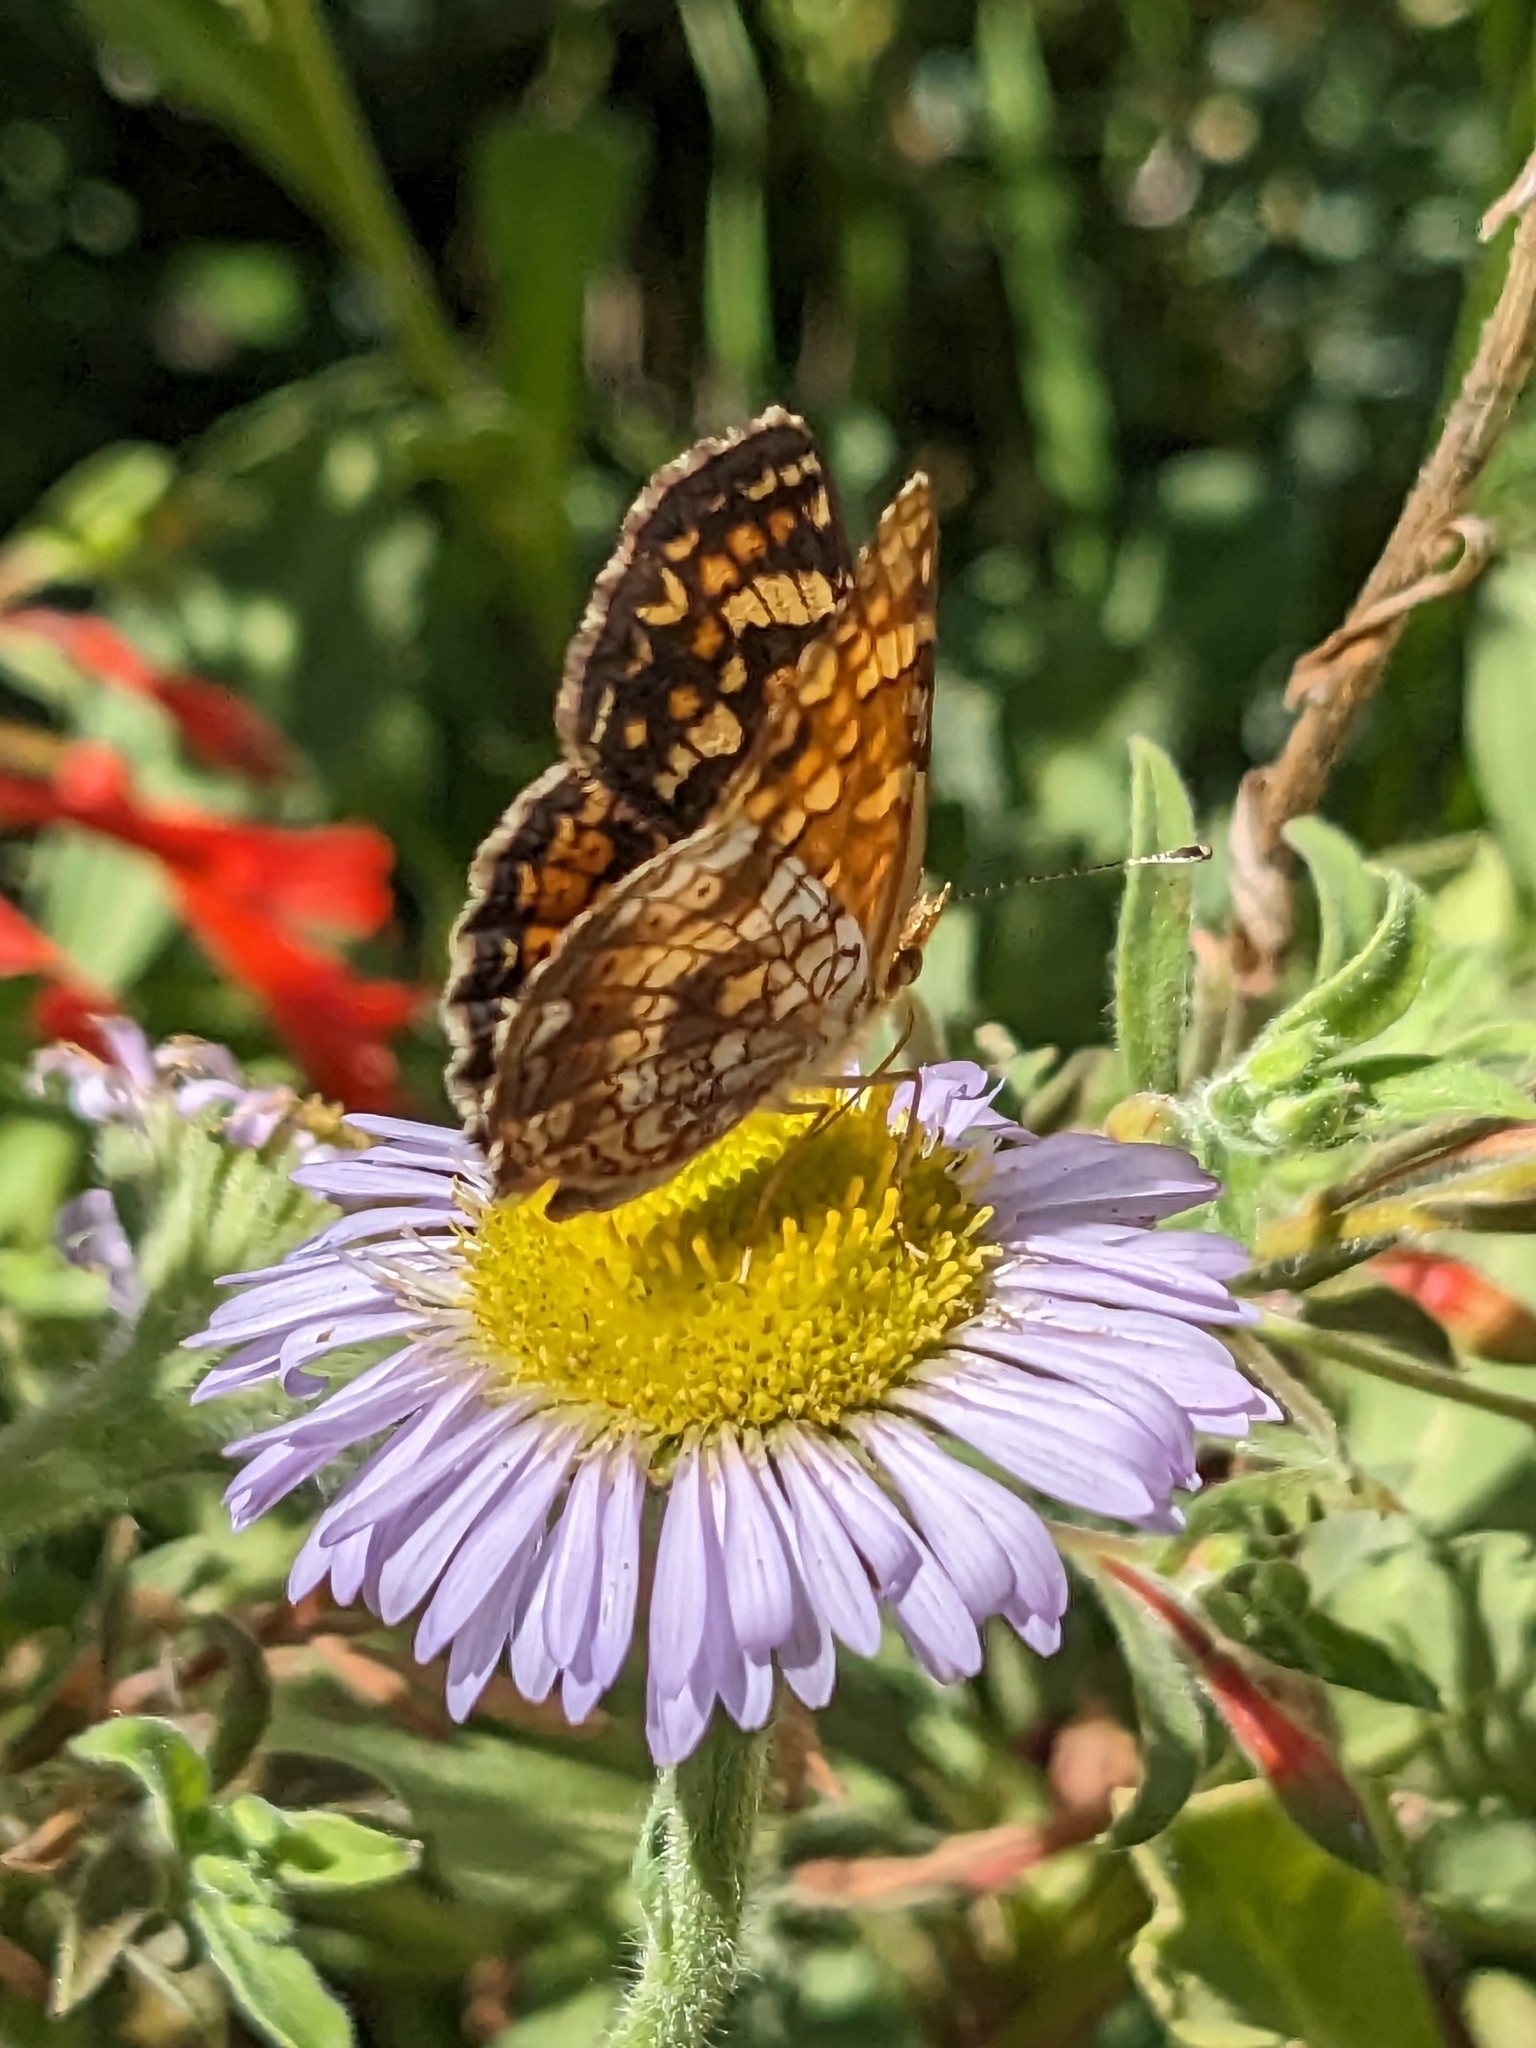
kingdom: Animalia
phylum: Arthropoda
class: Insecta
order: Lepidoptera
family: Nymphalidae
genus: Phyciodes
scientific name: Phyciodes tharos
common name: Pearl crescent
